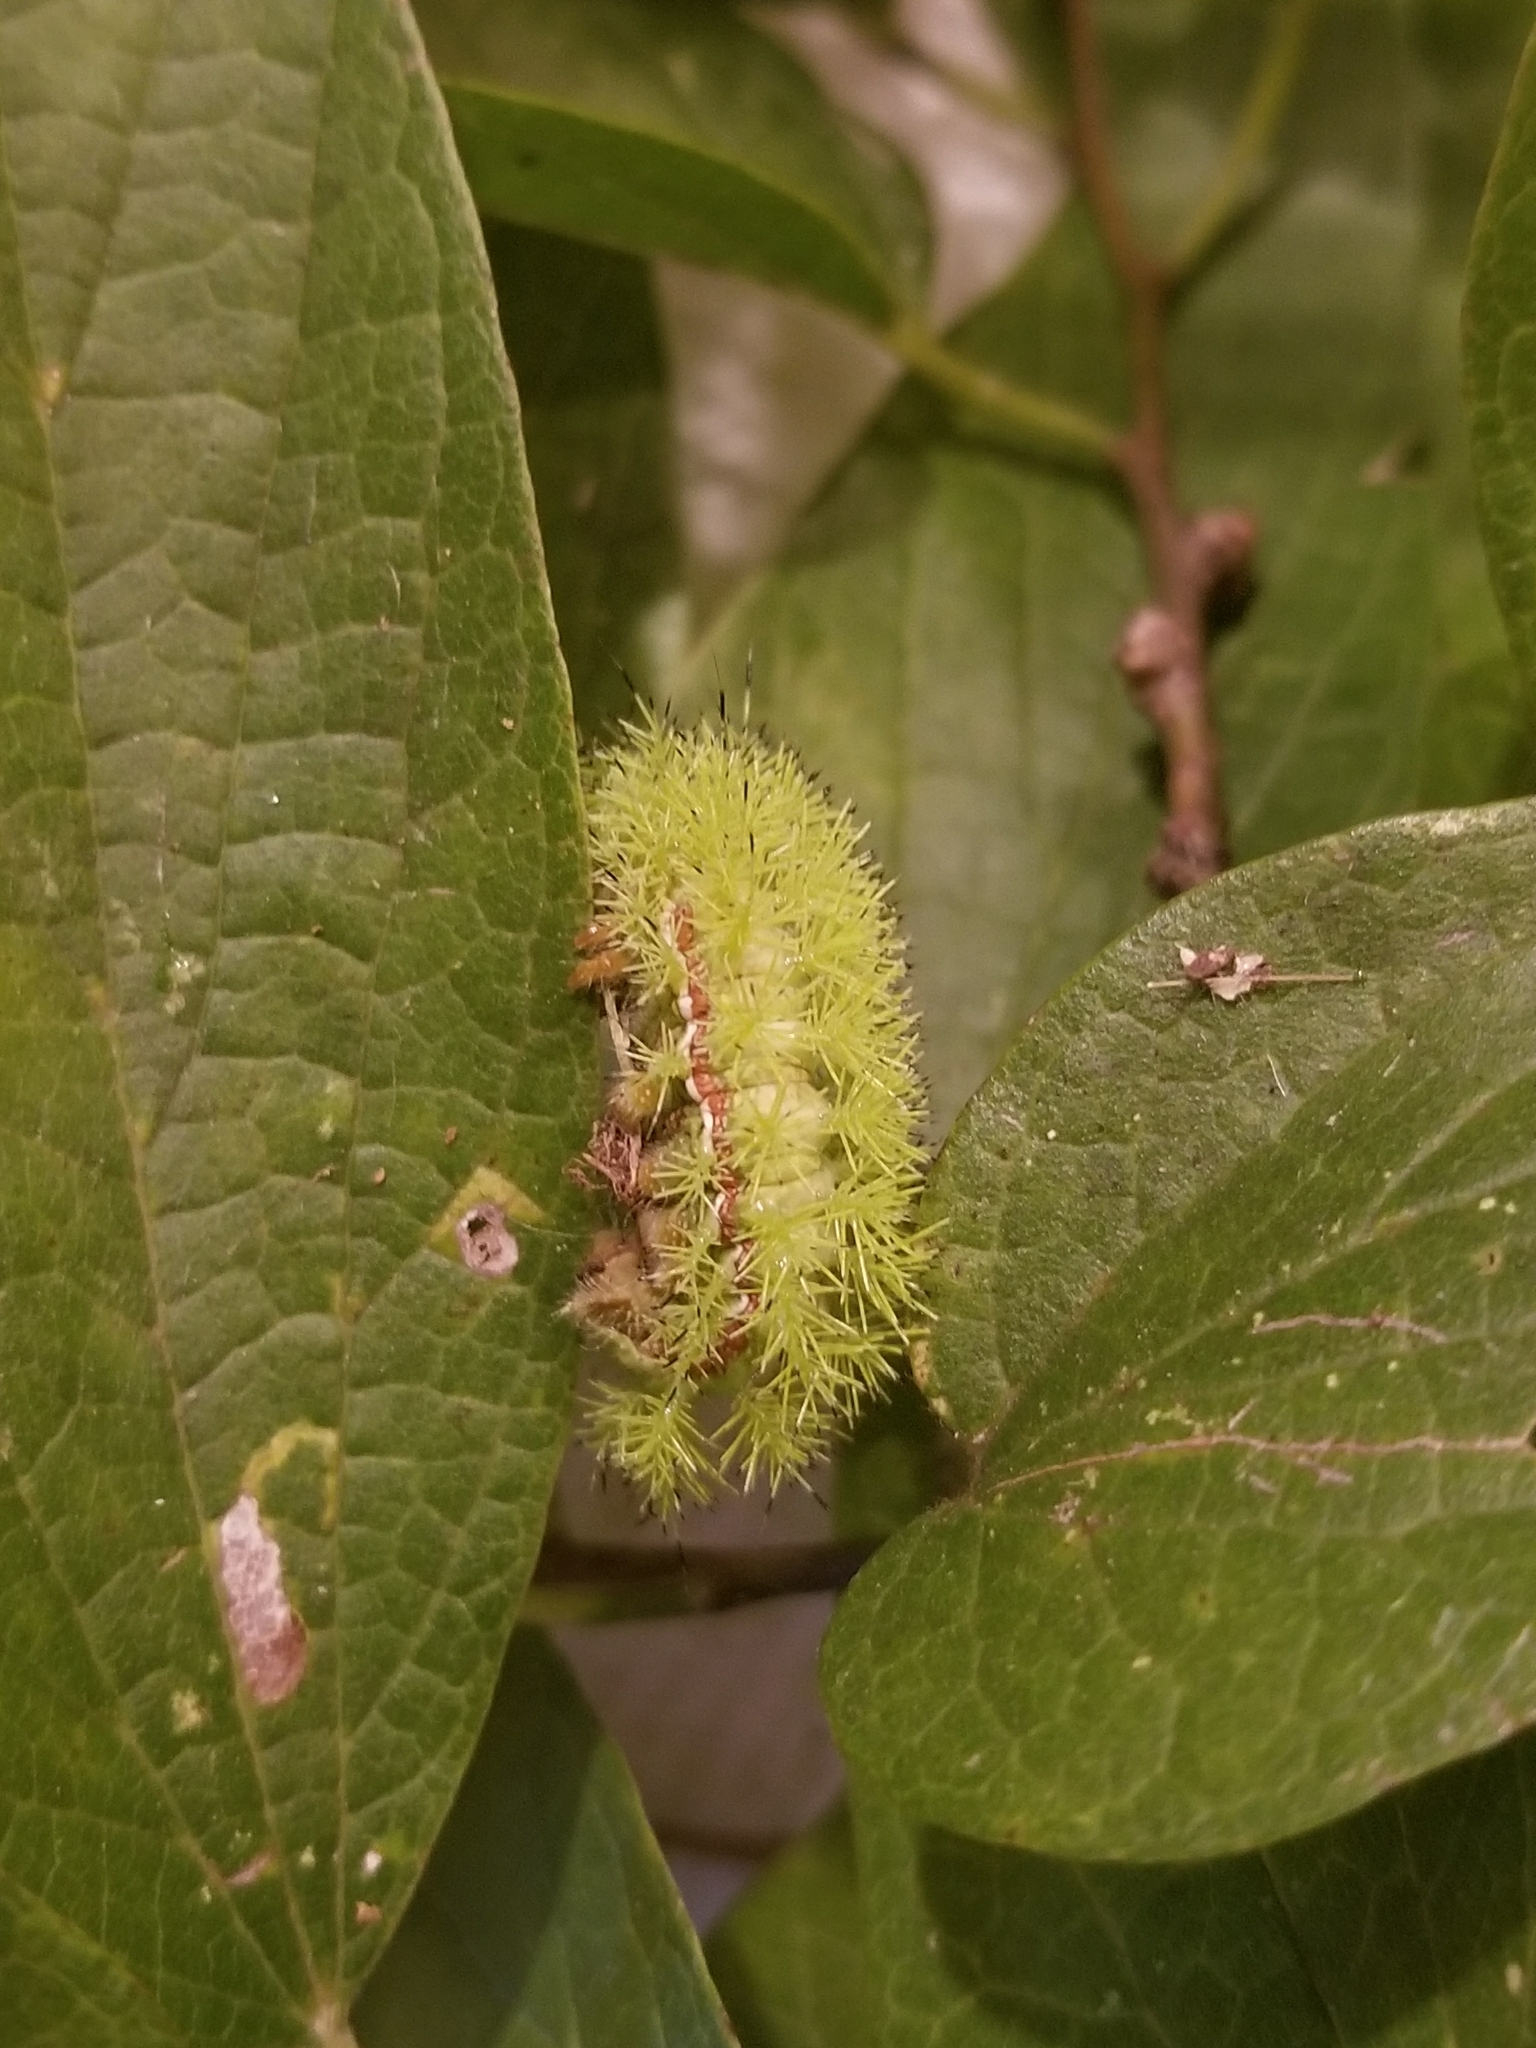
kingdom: Animalia
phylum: Arthropoda
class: Insecta
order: Lepidoptera
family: Saturniidae
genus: Automeris
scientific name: Automeris io
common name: Io moth
